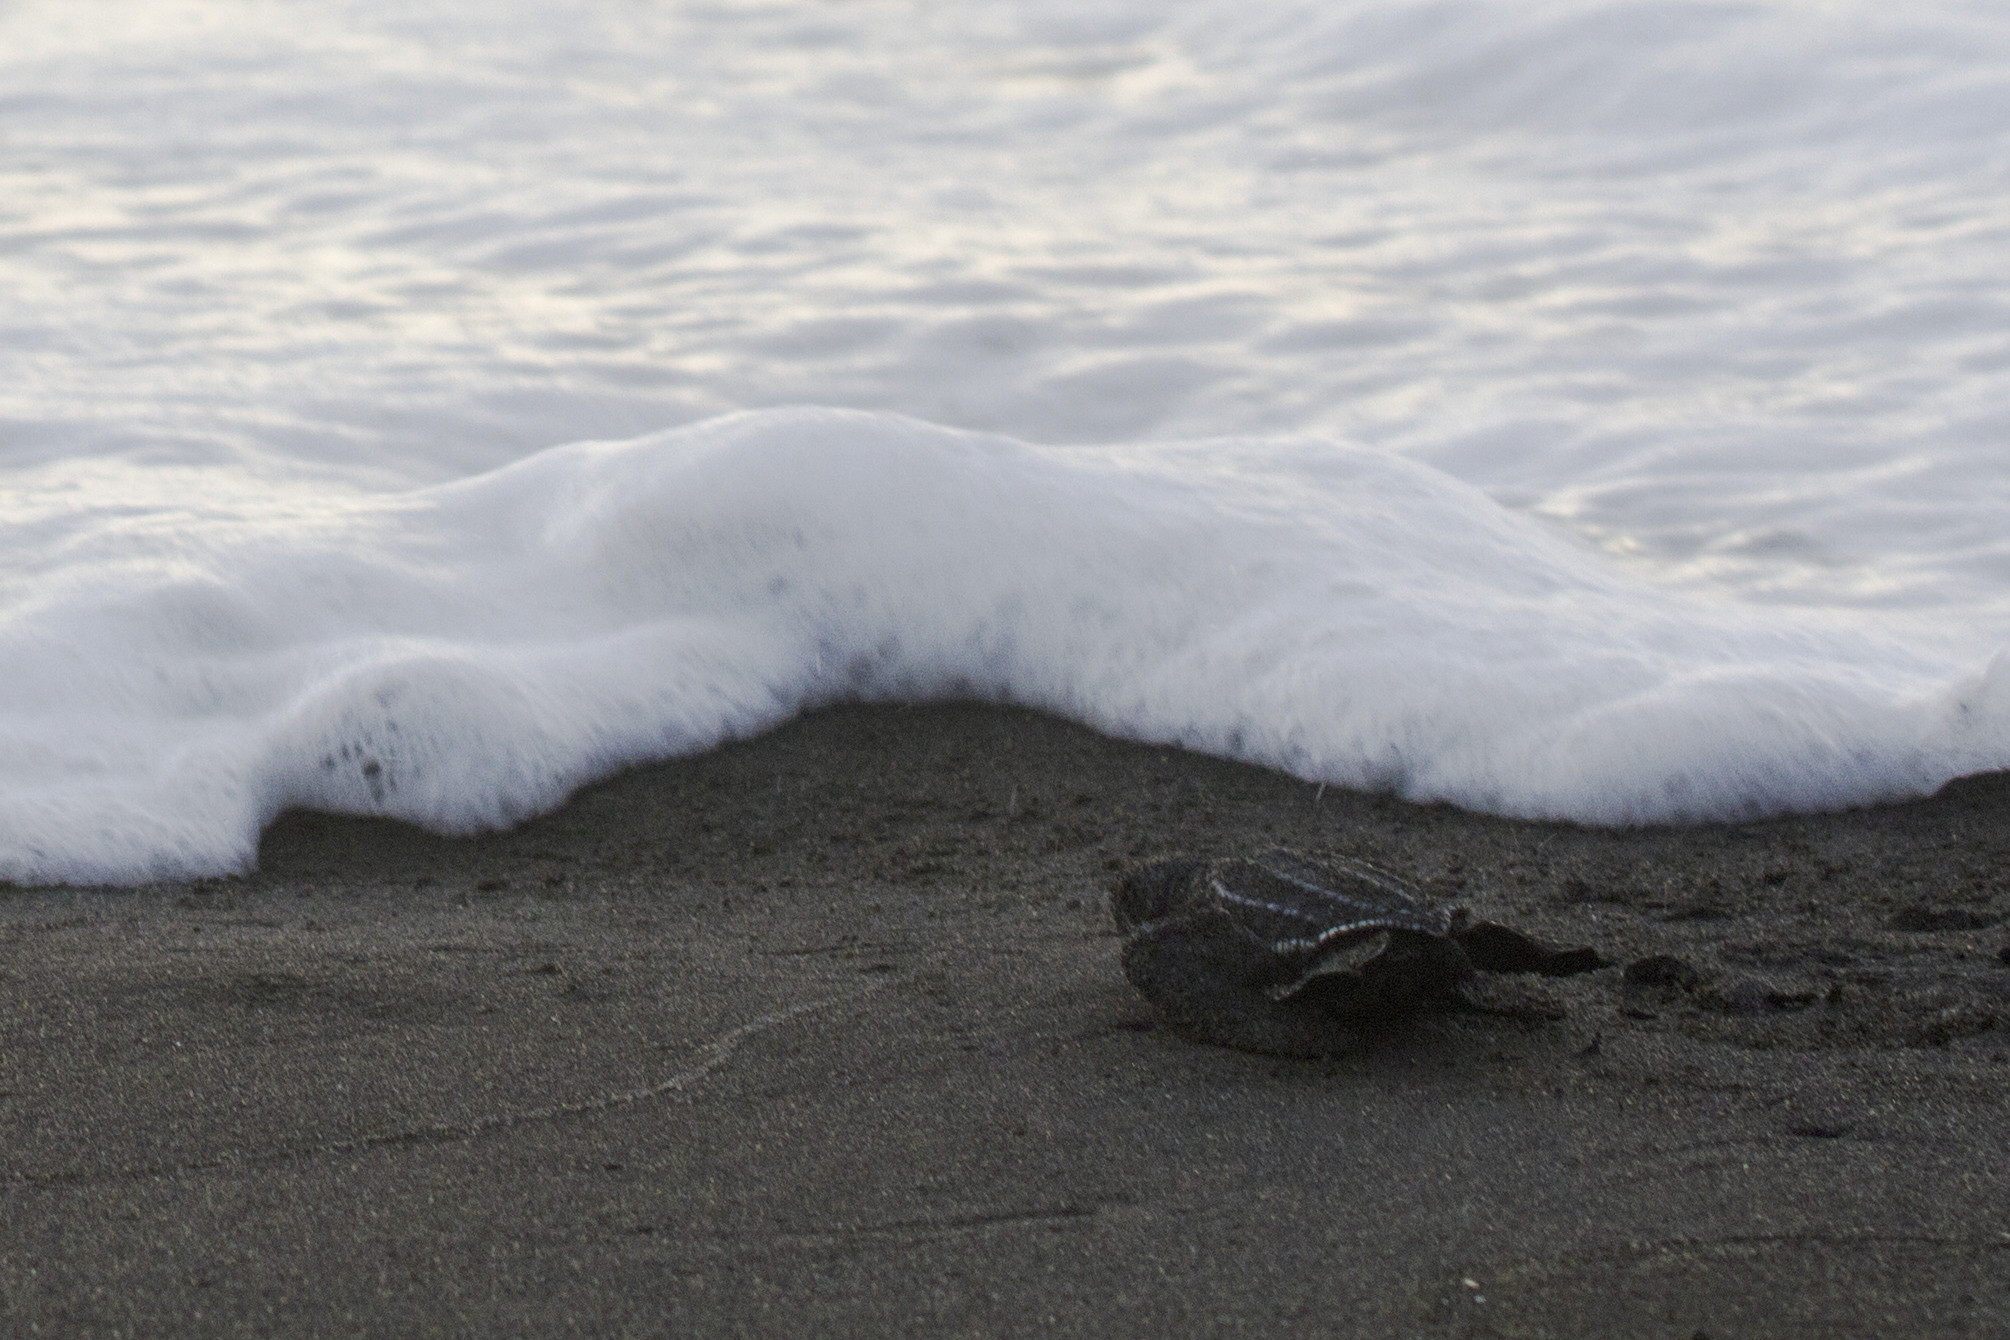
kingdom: Animalia
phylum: Chordata
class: Testudines
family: Dermochelyidae
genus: Dermochelys
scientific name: Dermochelys coriacea
